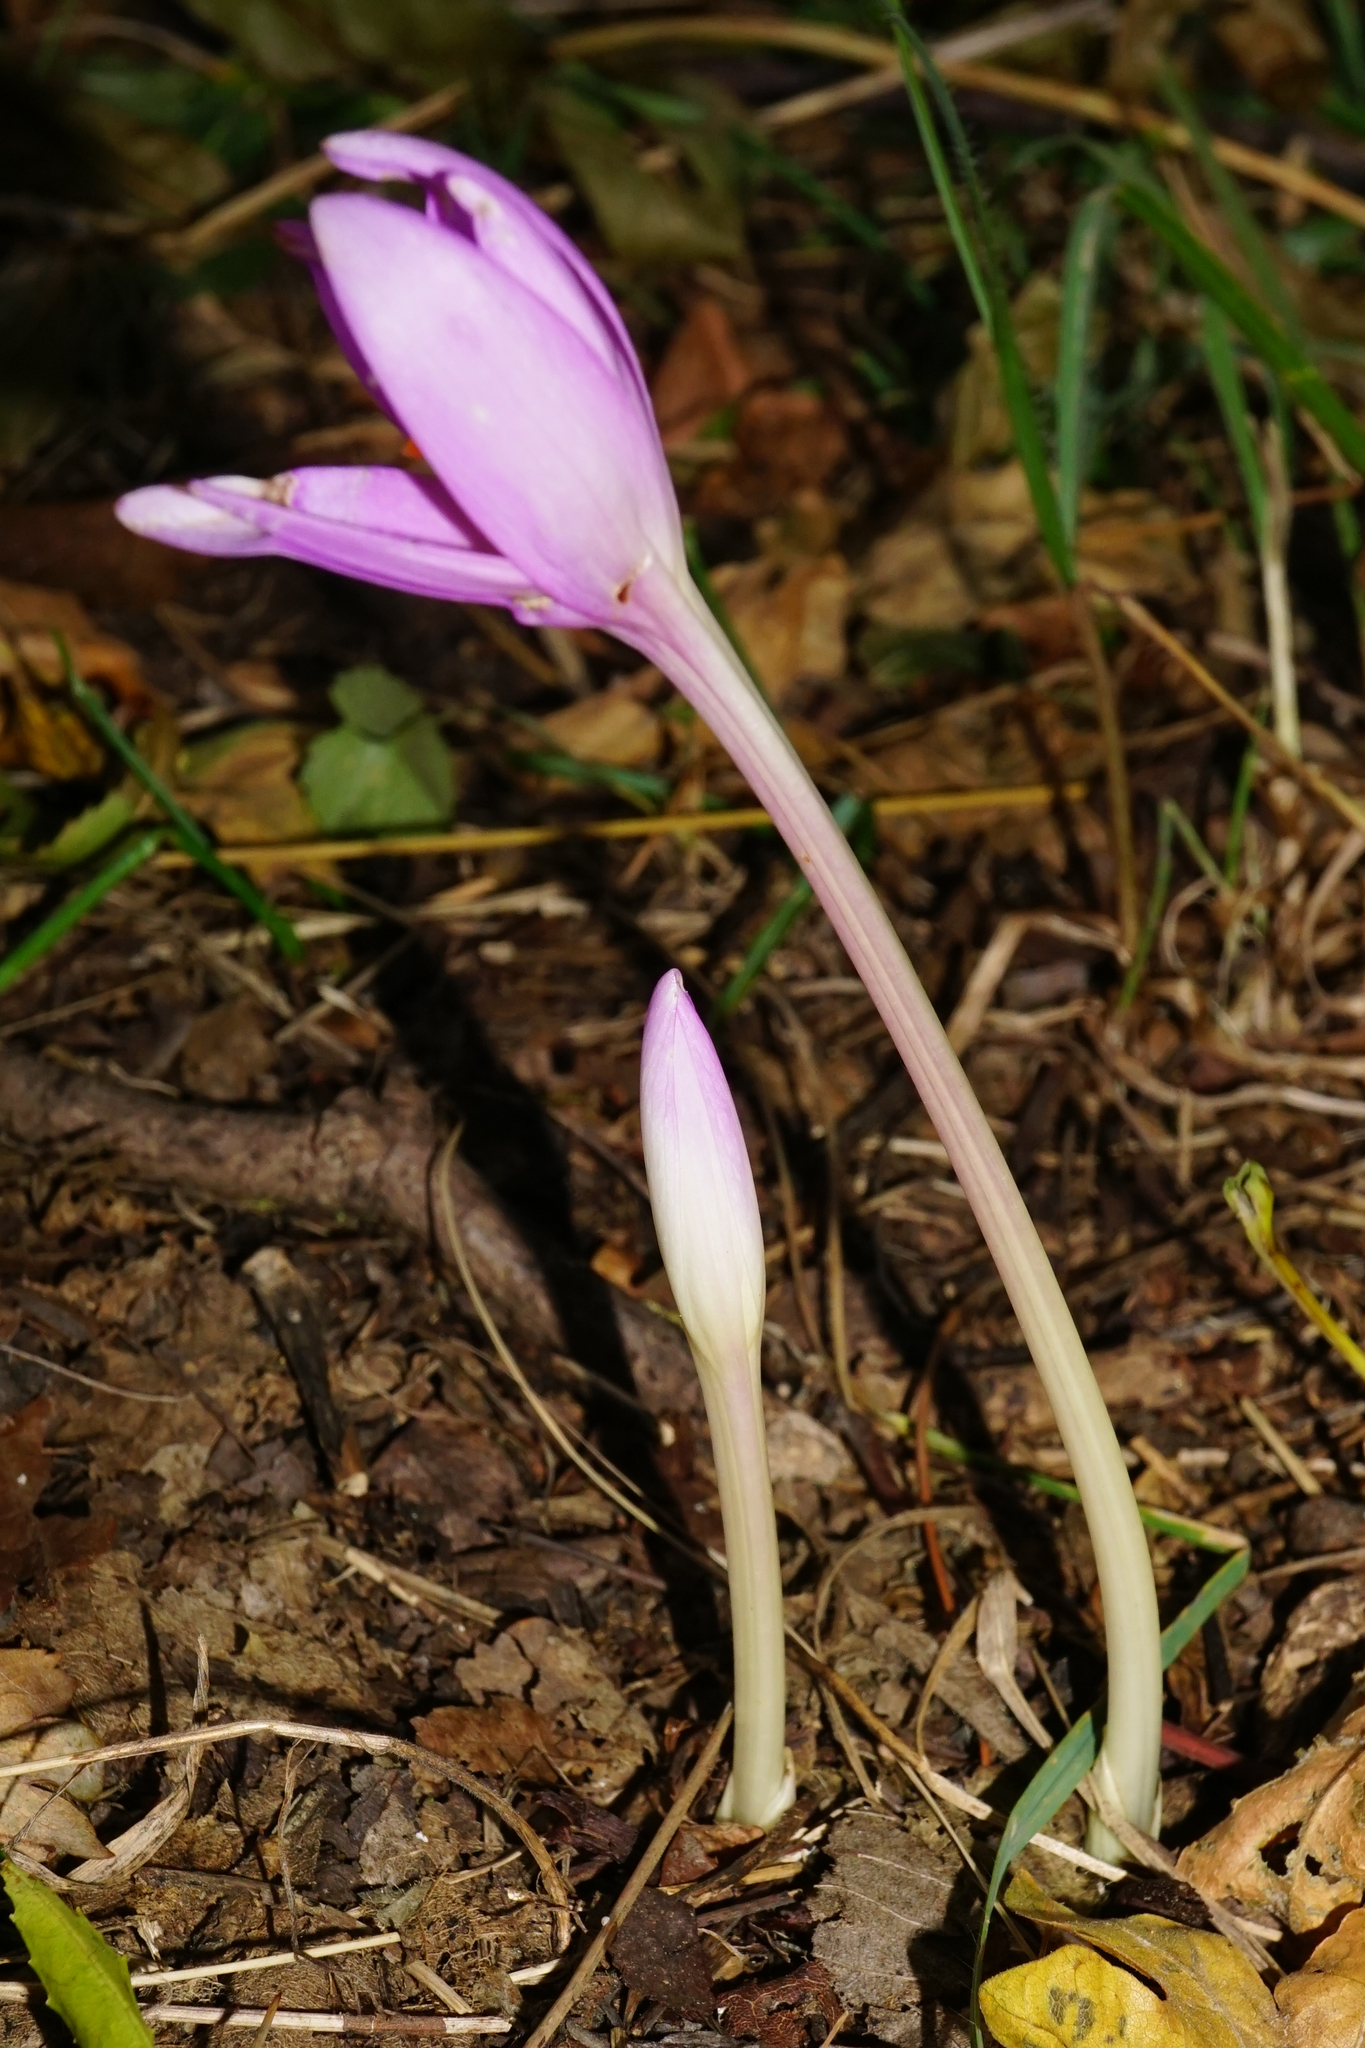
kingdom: Plantae
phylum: Tracheophyta
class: Liliopsida
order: Liliales
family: Colchicaceae
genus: Colchicum
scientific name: Colchicum autumnale
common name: Autumn crocus
